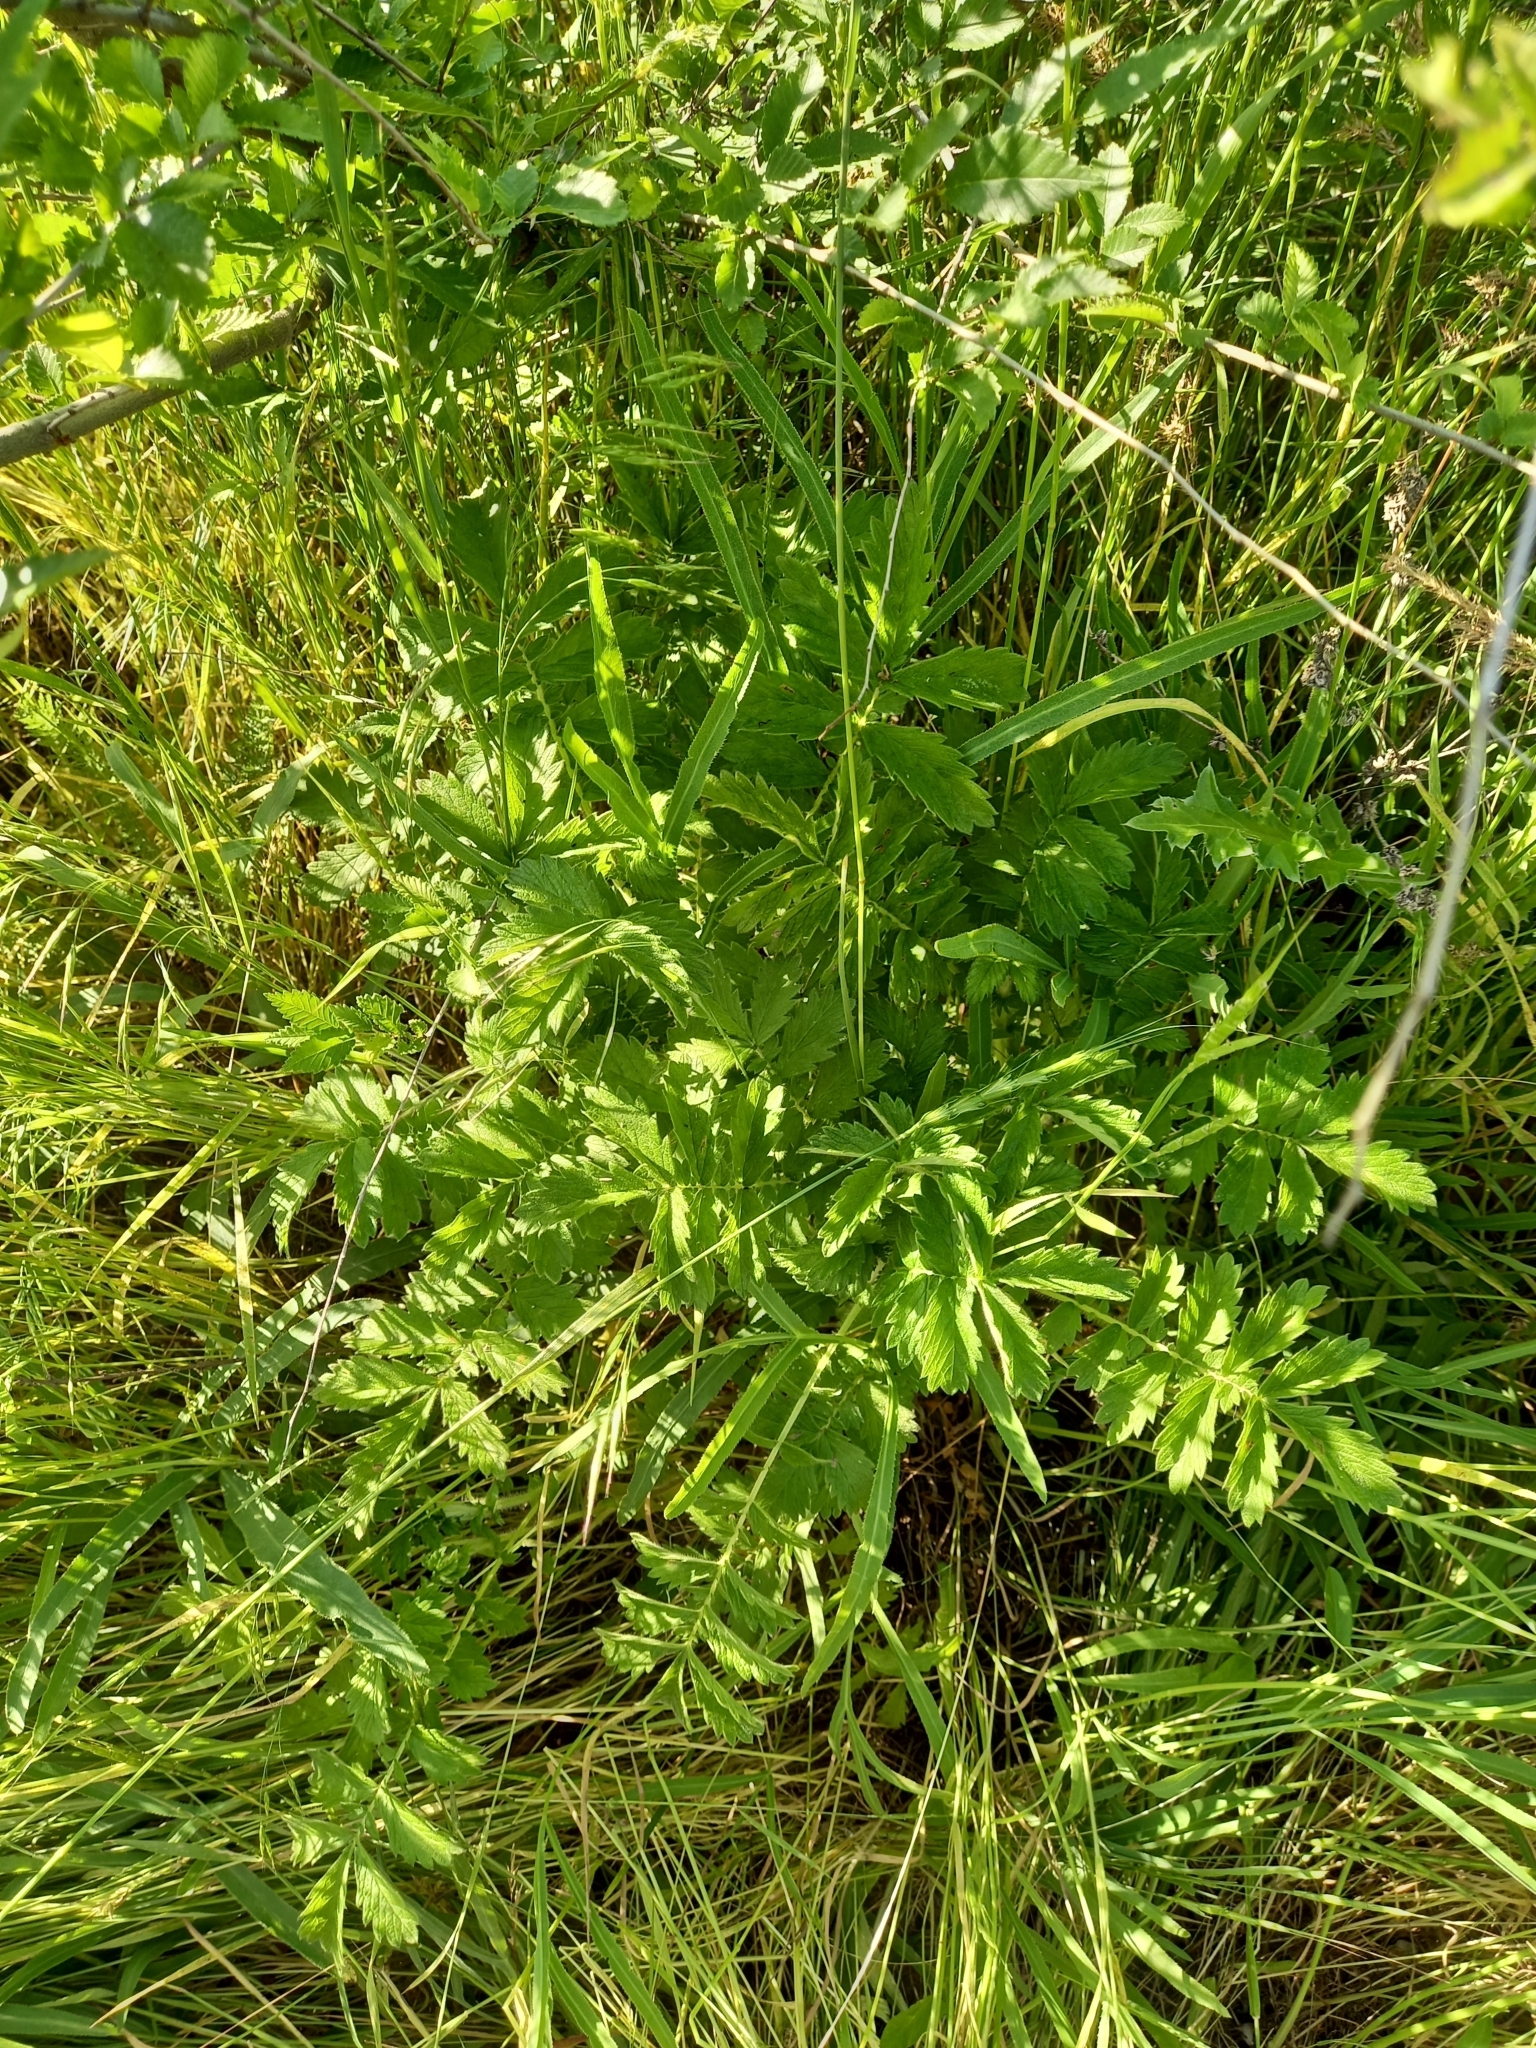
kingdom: Plantae
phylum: Tracheophyta
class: Magnoliopsida
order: Rosales
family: Rosaceae
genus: Agrimonia
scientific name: Agrimonia eupatoria
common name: Agrimony
